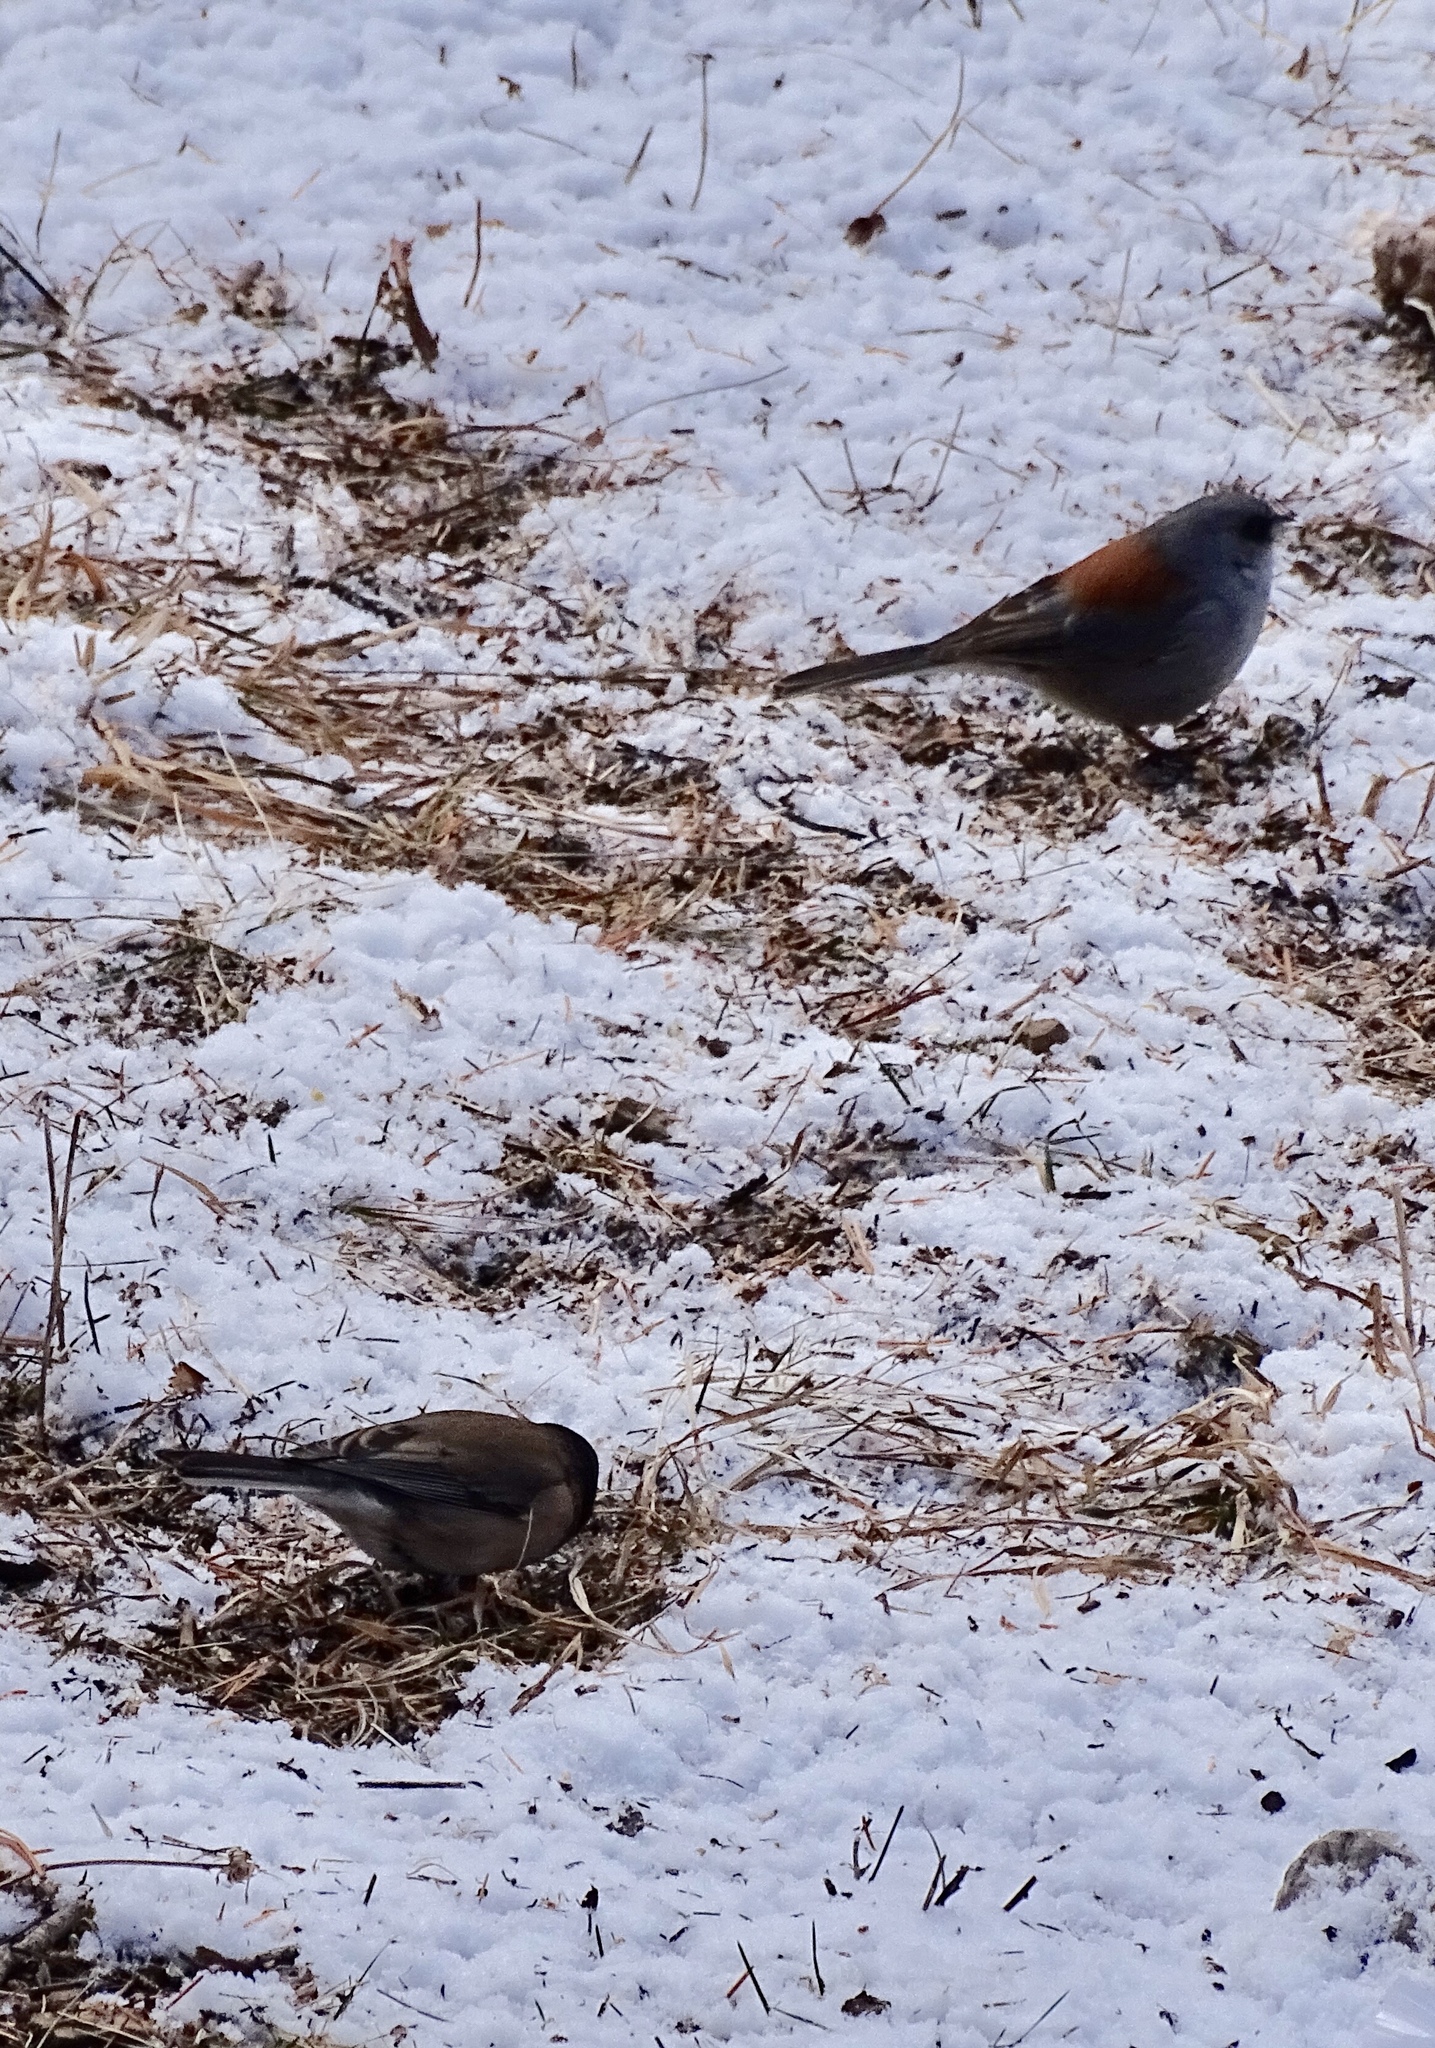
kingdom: Animalia
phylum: Chordata
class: Aves
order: Passeriformes
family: Passerellidae
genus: Junco
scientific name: Junco hyemalis
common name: Dark-eyed junco
